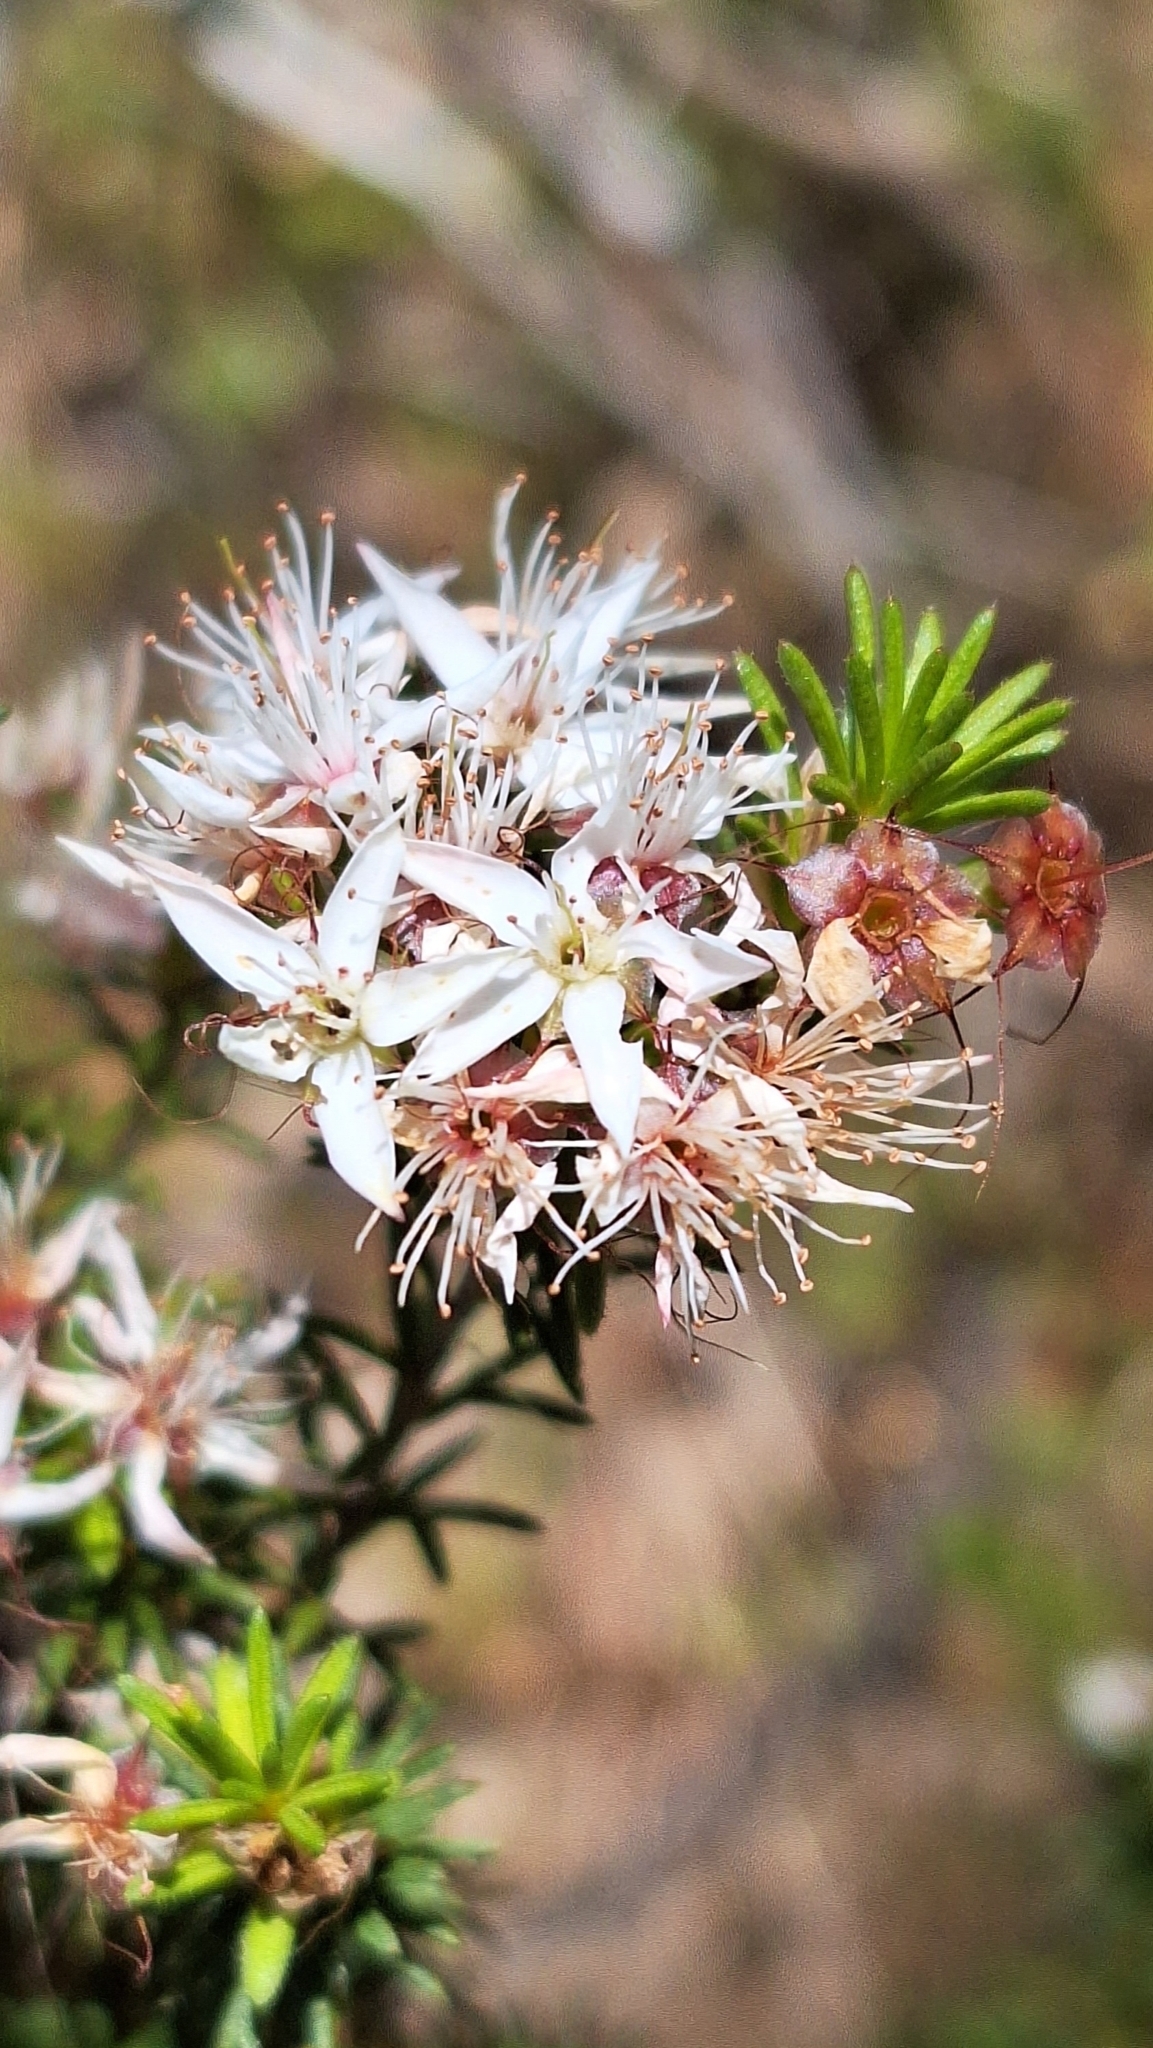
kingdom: Plantae
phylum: Tracheophyta
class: Magnoliopsida
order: Myrtales
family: Myrtaceae
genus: Calytrix
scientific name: Calytrix tetragona
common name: Common fringe myrtle
